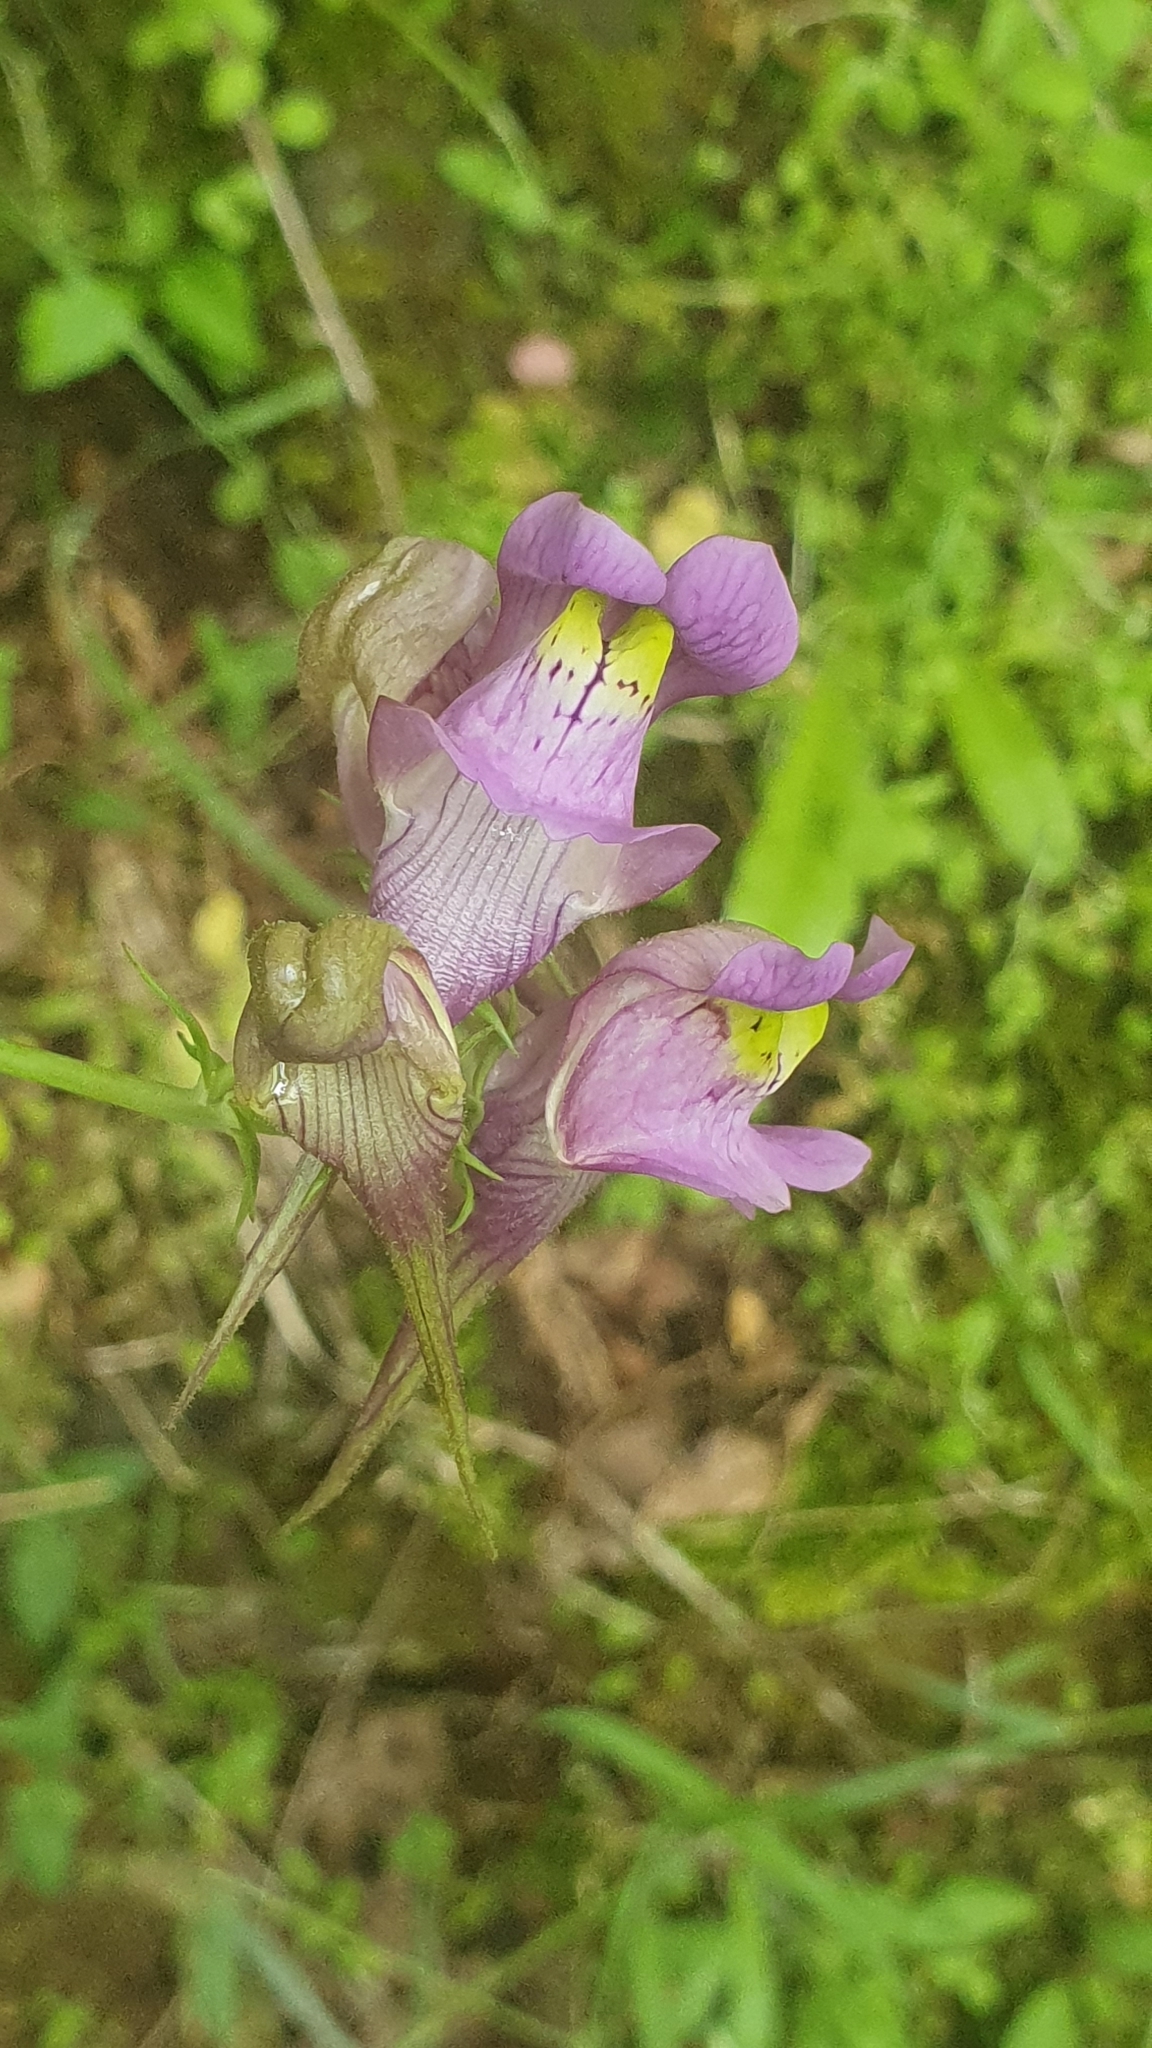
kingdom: Plantae
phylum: Tracheophyta
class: Magnoliopsida
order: Lamiales
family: Plantaginaceae
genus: Linaria
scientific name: Linaria triornithophora
